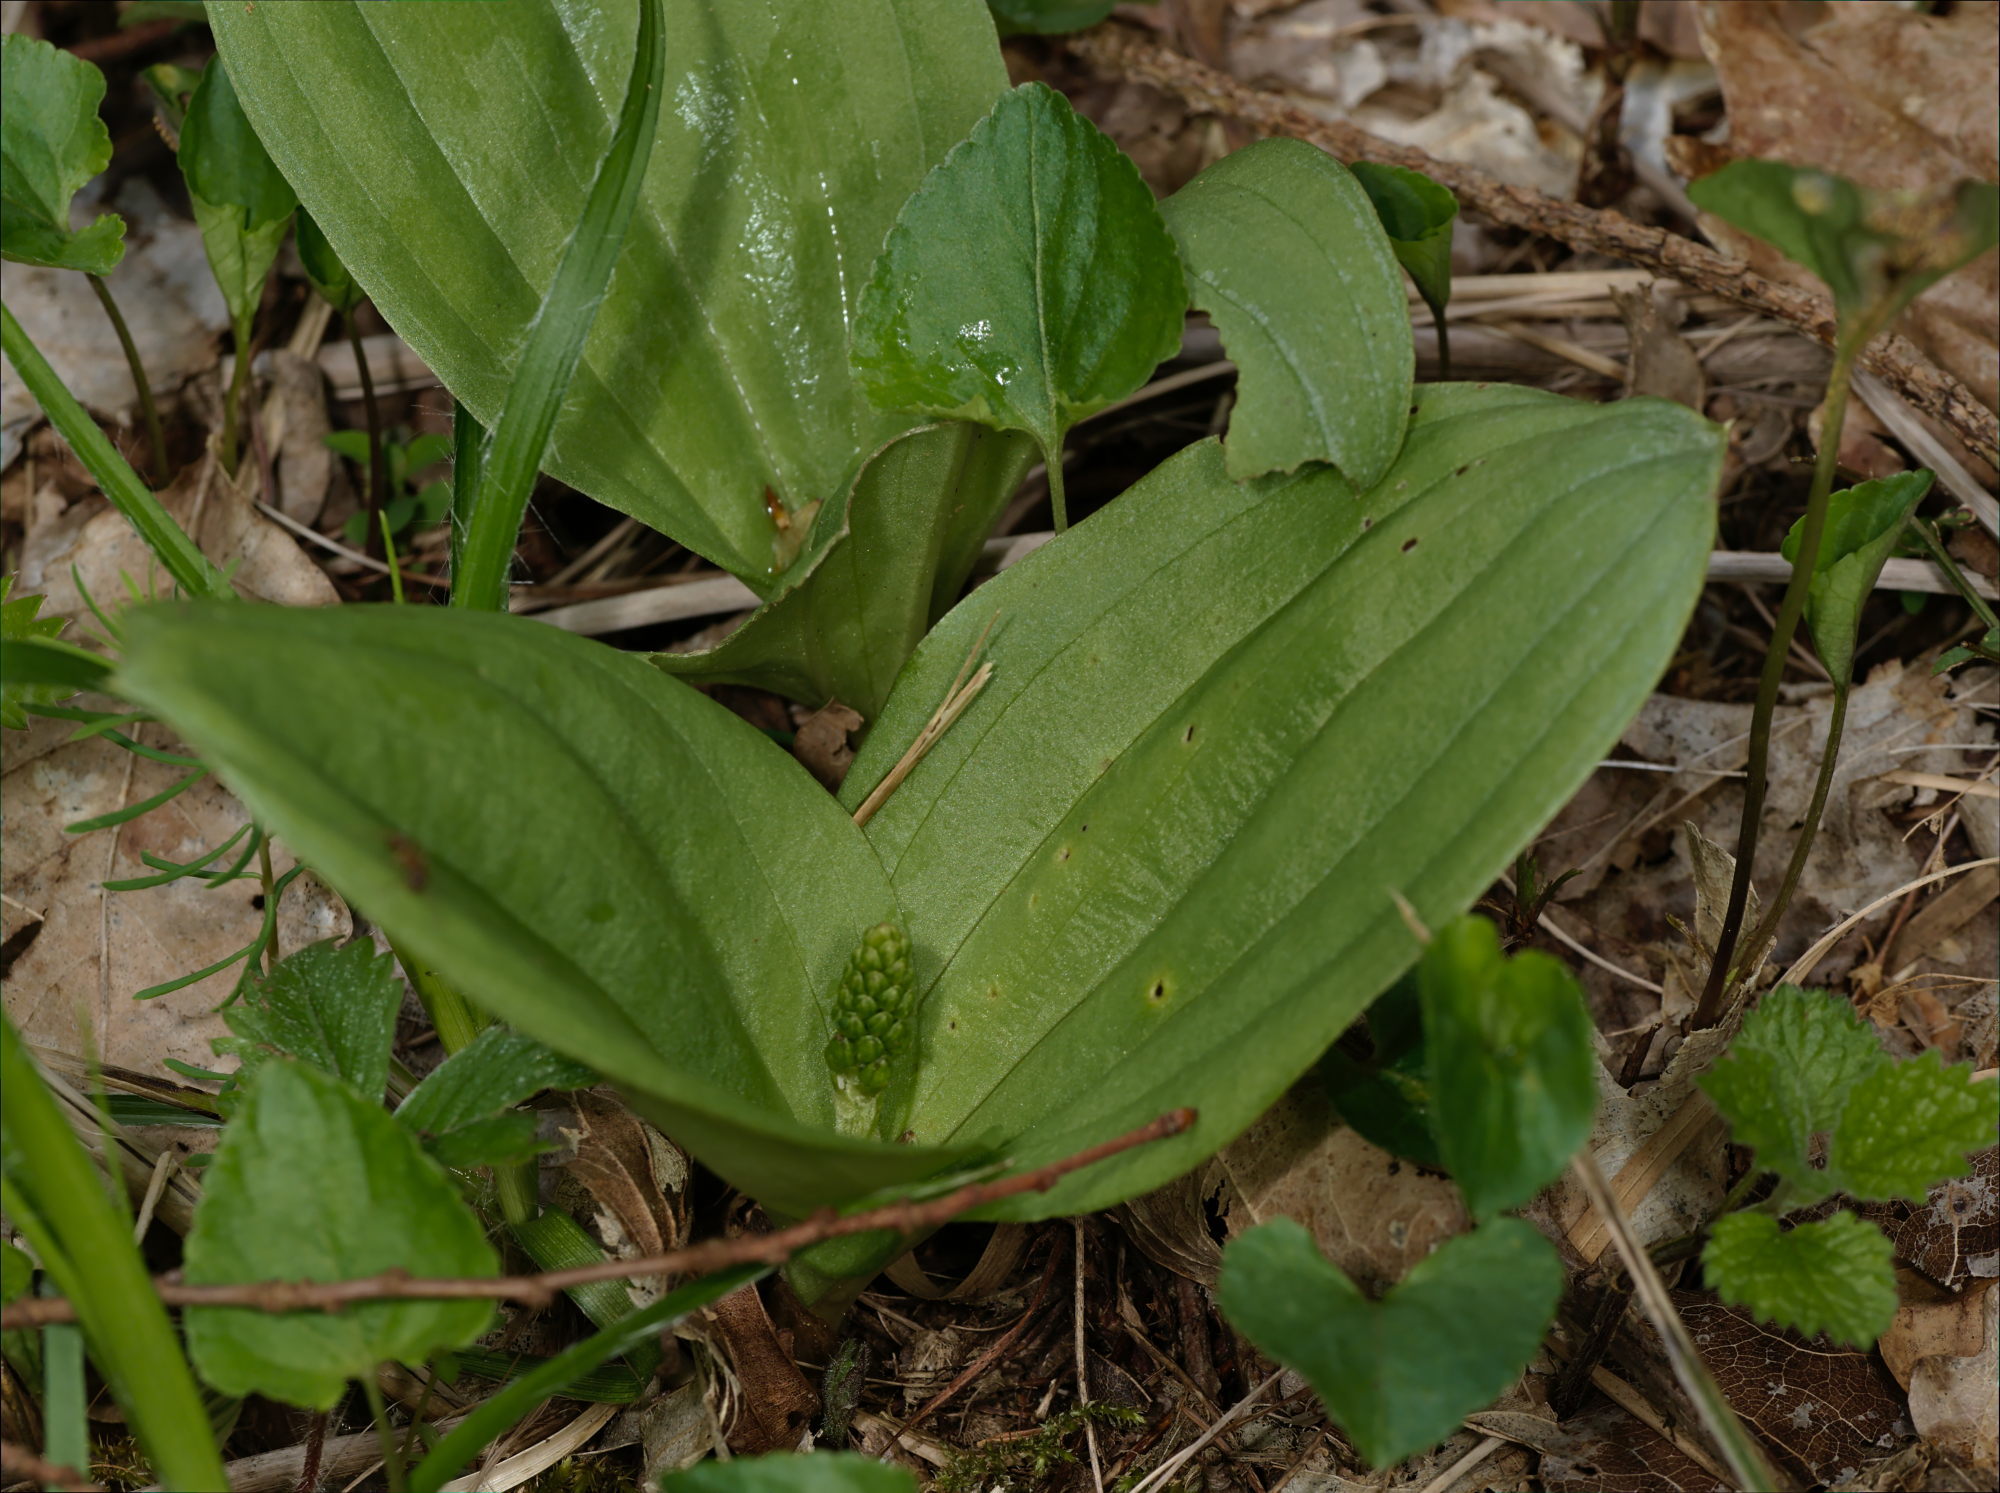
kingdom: Plantae
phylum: Tracheophyta
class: Liliopsida
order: Asparagales
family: Orchidaceae
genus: Neottia
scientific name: Neottia ovata
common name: Common twayblade
